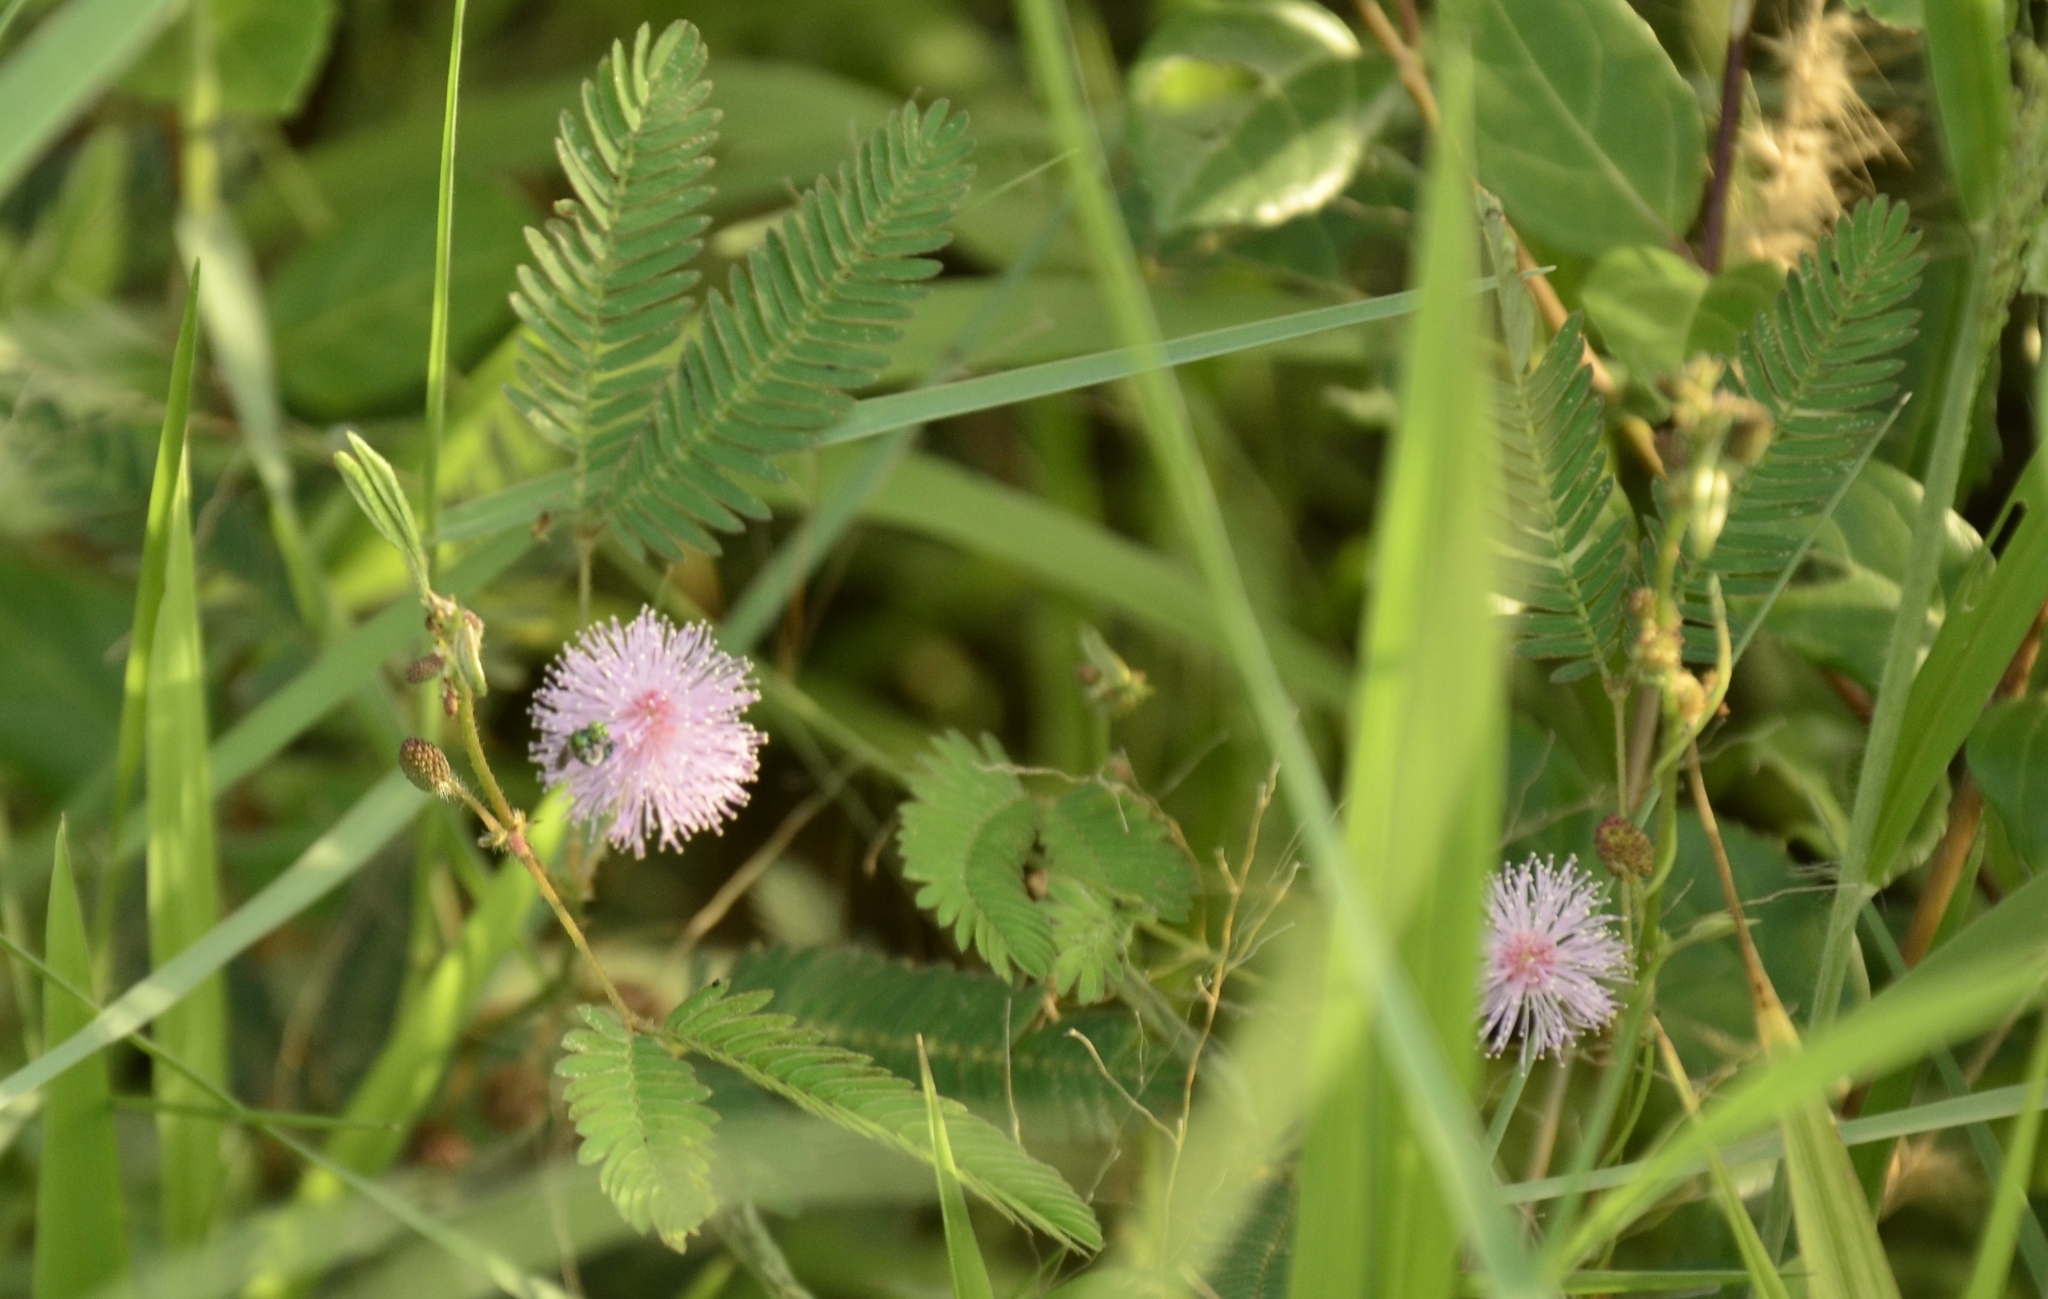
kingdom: Plantae
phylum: Tracheophyta
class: Magnoliopsida
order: Fabales
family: Fabaceae
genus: Mimosa
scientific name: Mimosa pudica
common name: Sensitive plant
